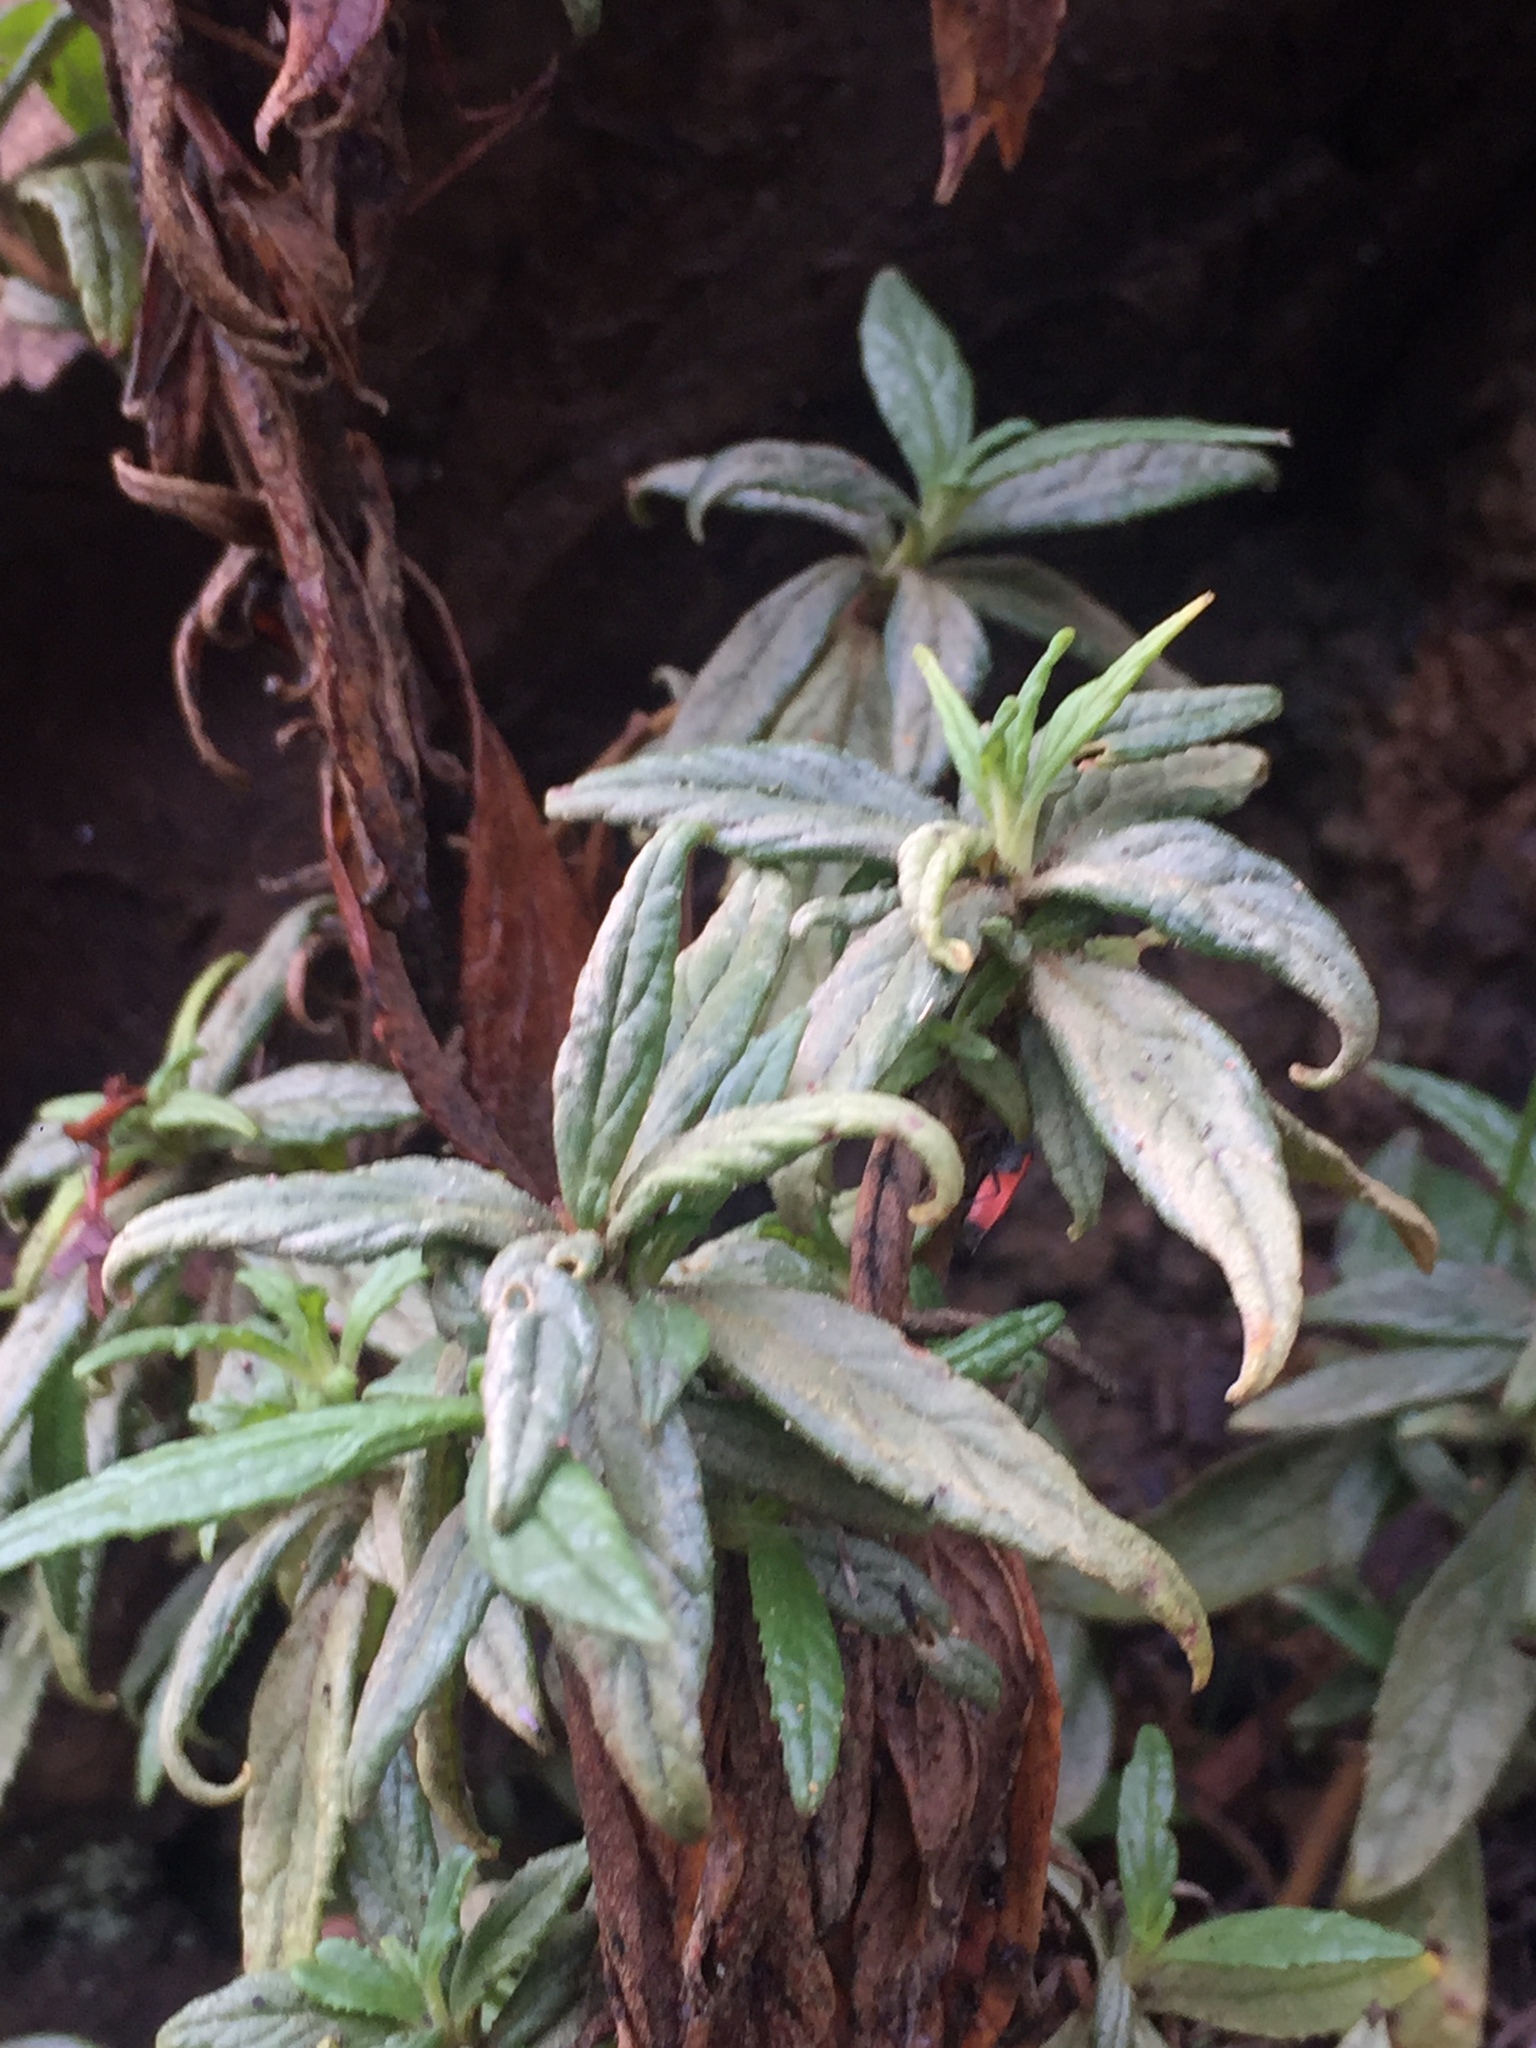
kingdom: Plantae
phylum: Tracheophyta
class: Magnoliopsida
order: Lamiales
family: Phrymaceae
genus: Diplacus
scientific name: Diplacus longiflorus
